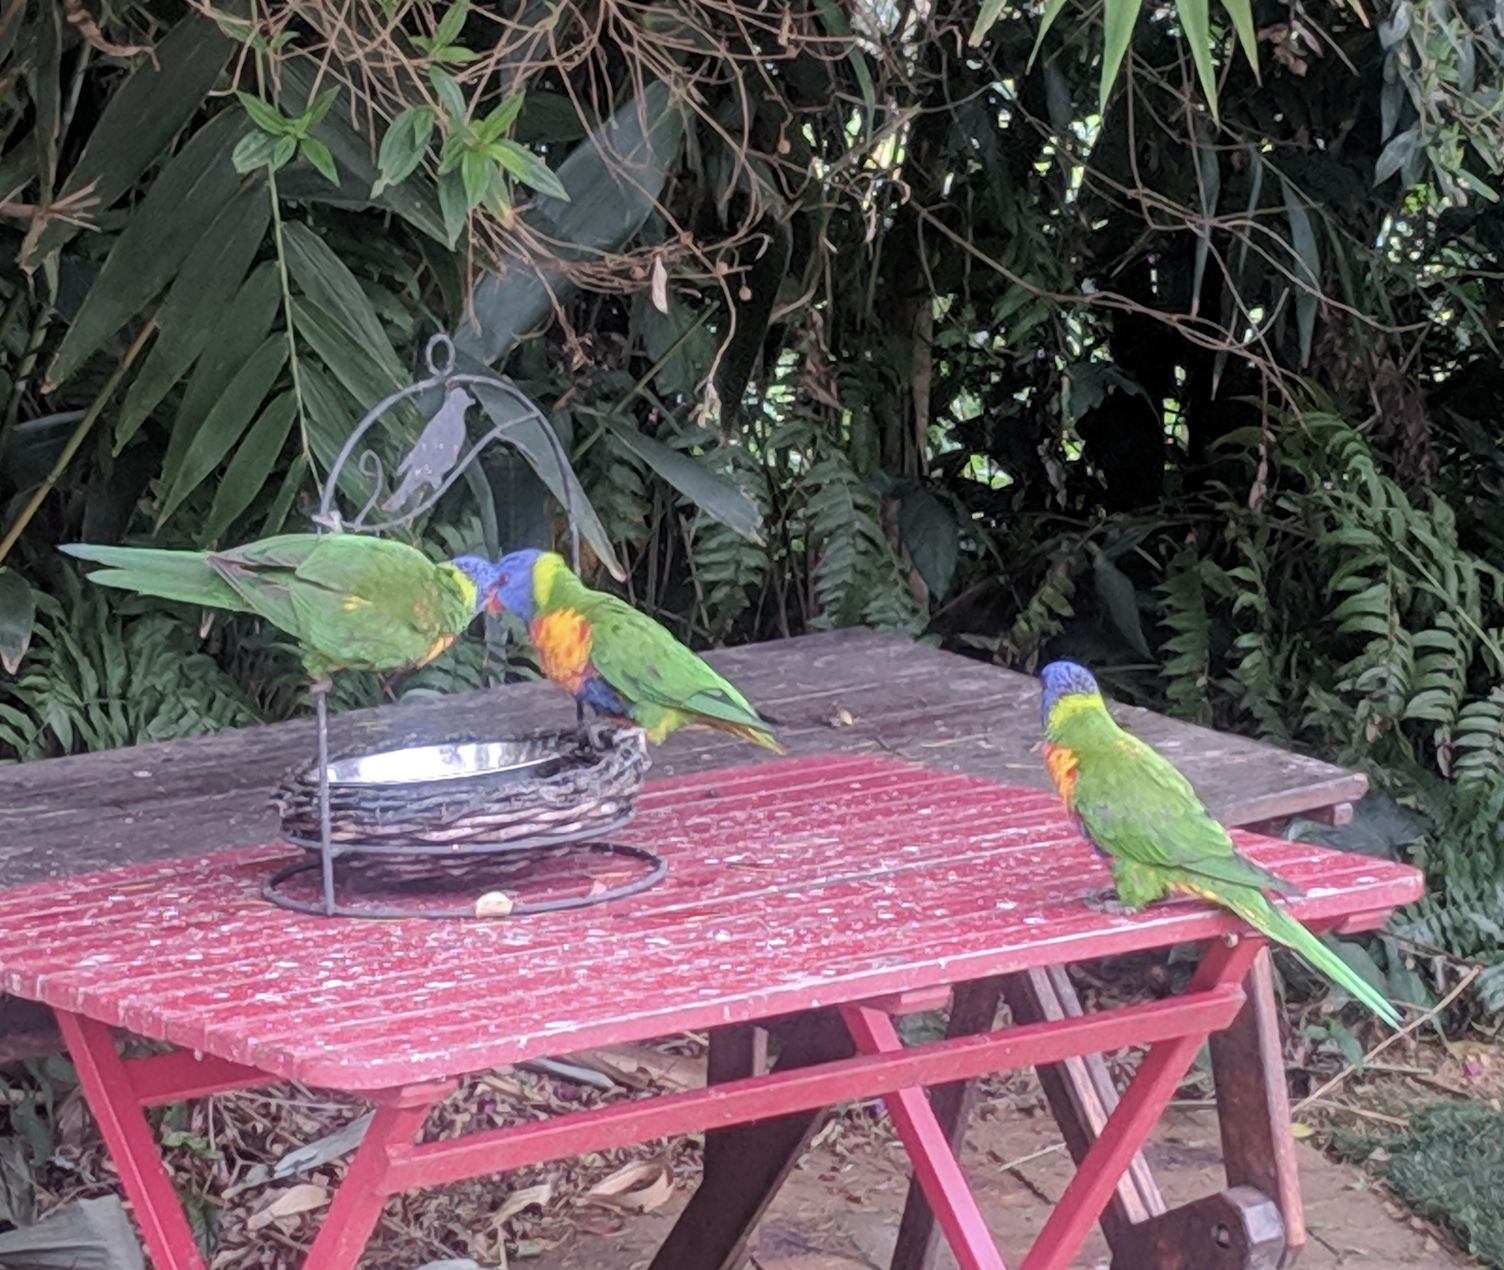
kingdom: Animalia
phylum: Chordata
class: Aves
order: Psittaciformes
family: Psittacidae
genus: Trichoglossus
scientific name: Trichoglossus haematodus
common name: Coconut lorikeet
